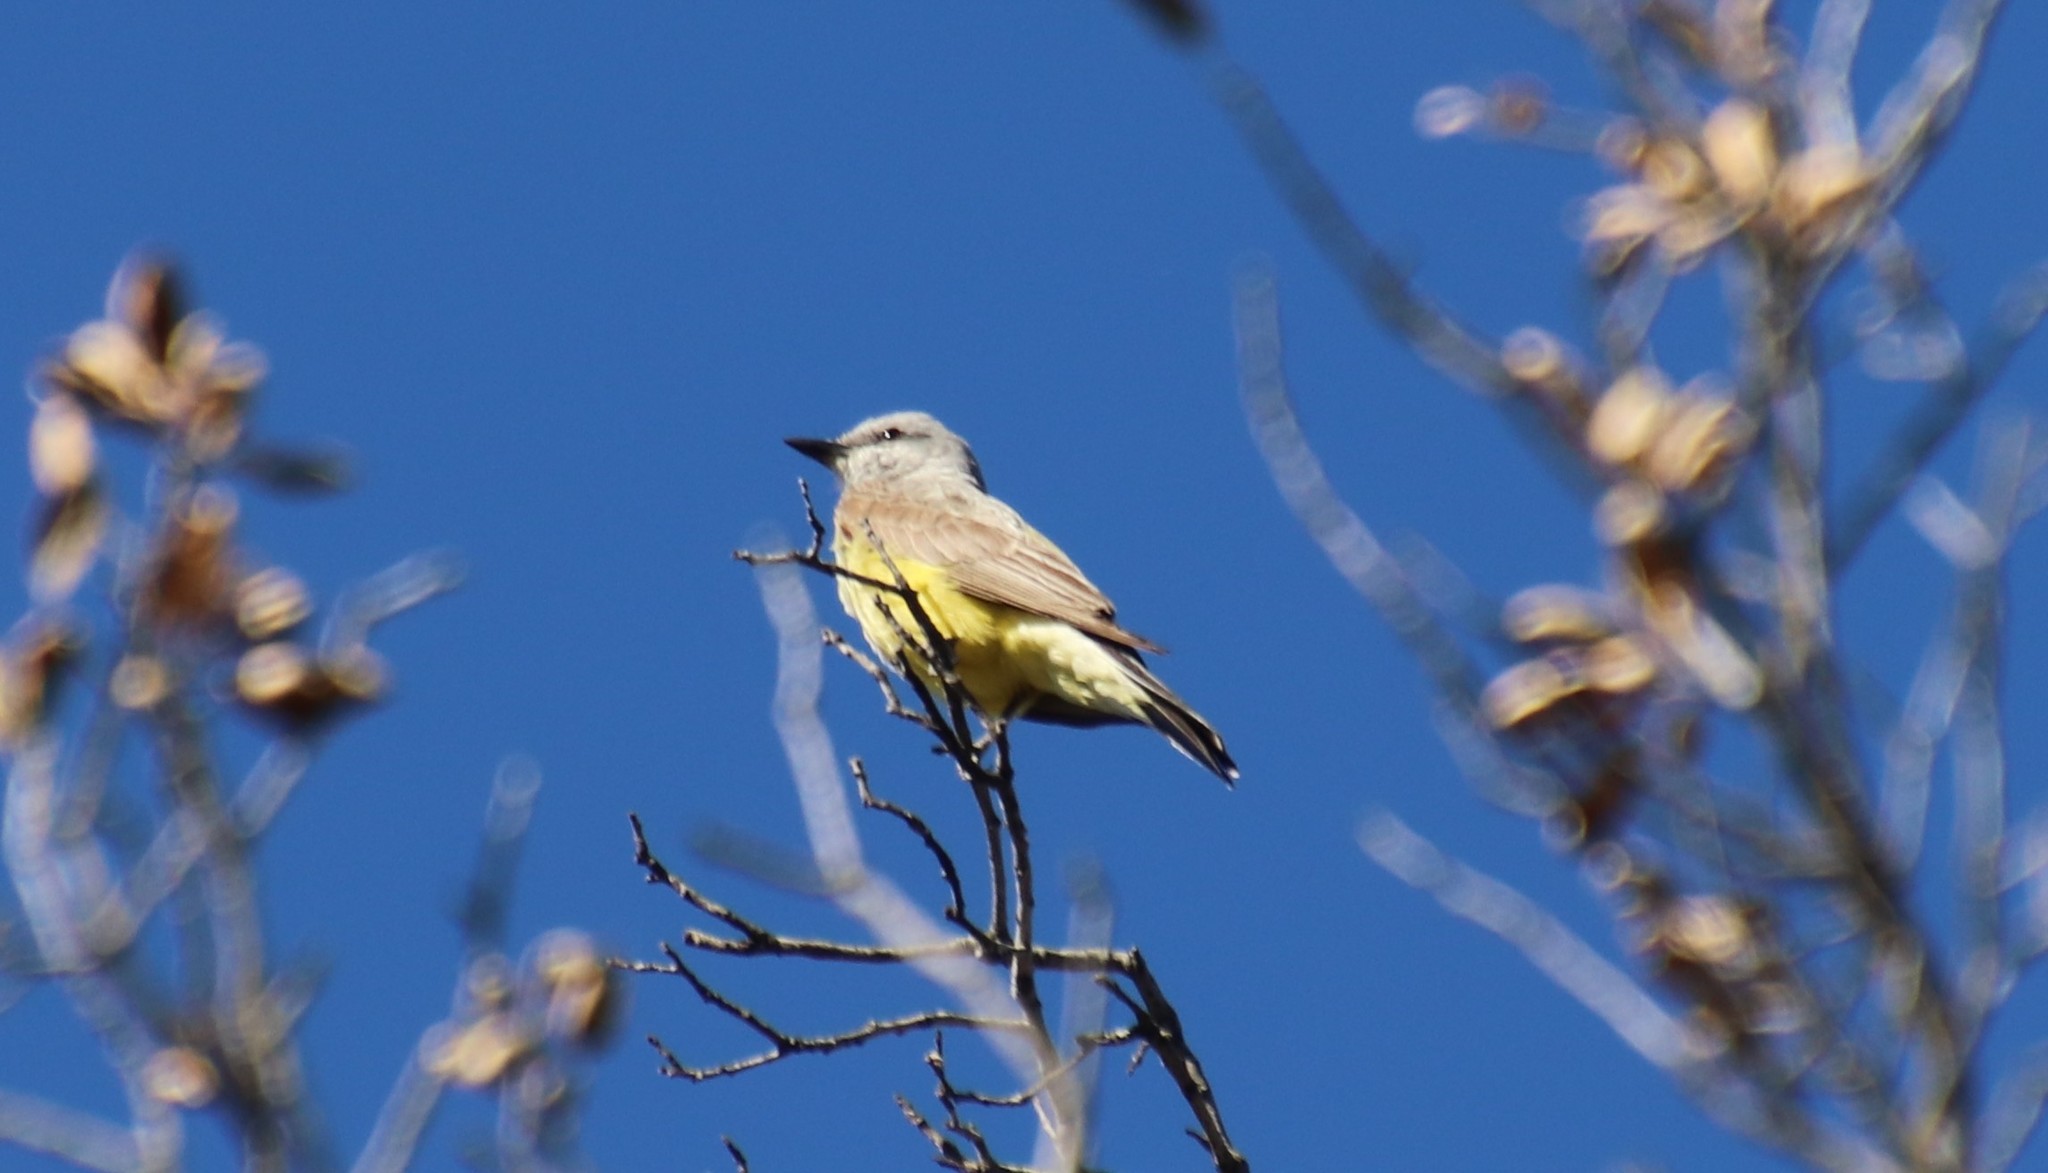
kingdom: Animalia
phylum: Chordata
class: Aves
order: Passeriformes
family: Tyrannidae
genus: Tyrannus
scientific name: Tyrannus verticalis
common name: Western kingbird
